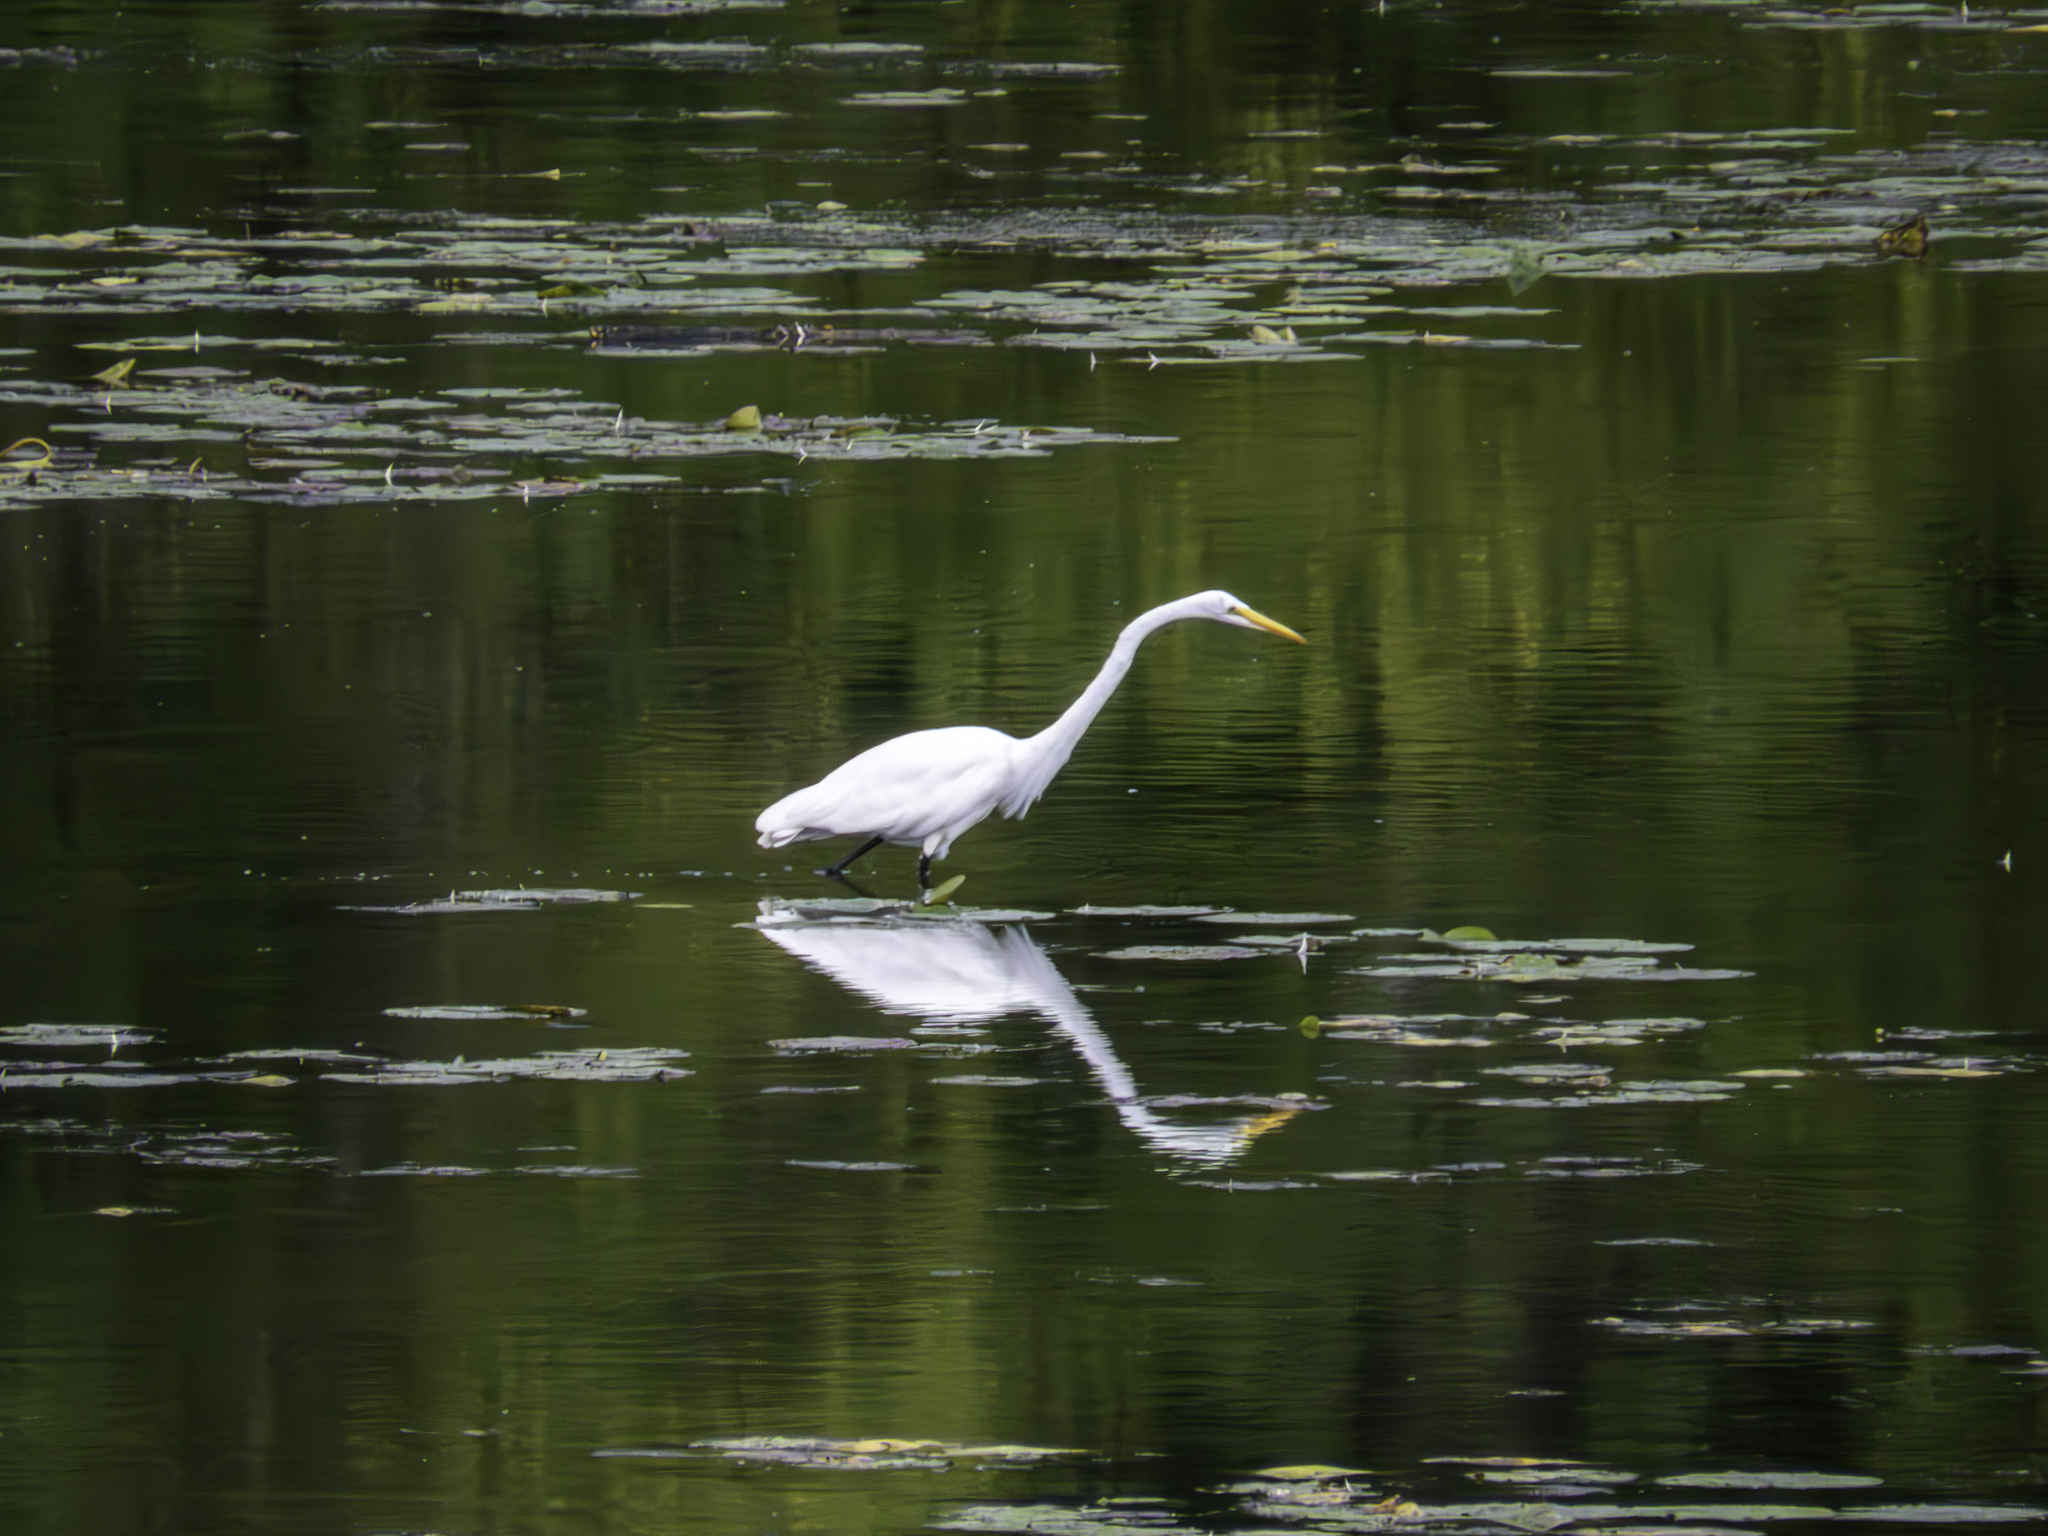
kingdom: Animalia
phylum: Chordata
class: Aves
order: Pelecaniformes
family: Ardeidae
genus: Ardea
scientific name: Ardea alba
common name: Great egret
